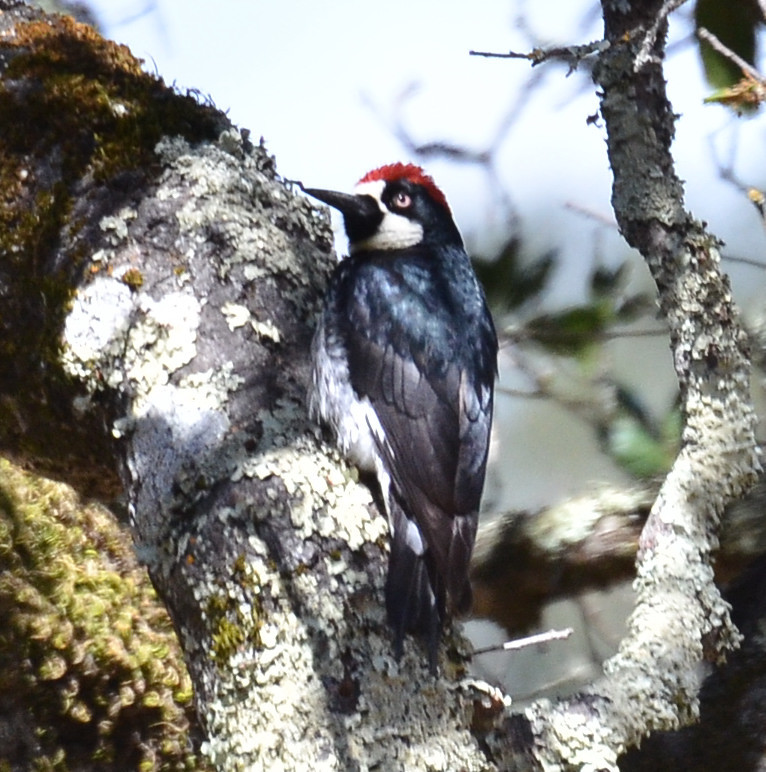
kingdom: Animalia
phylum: Chordata
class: Aves
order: Piciformes
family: Picidae
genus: Melanerpes
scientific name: Melanerpes formicivorus
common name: Acorn woodpecker
